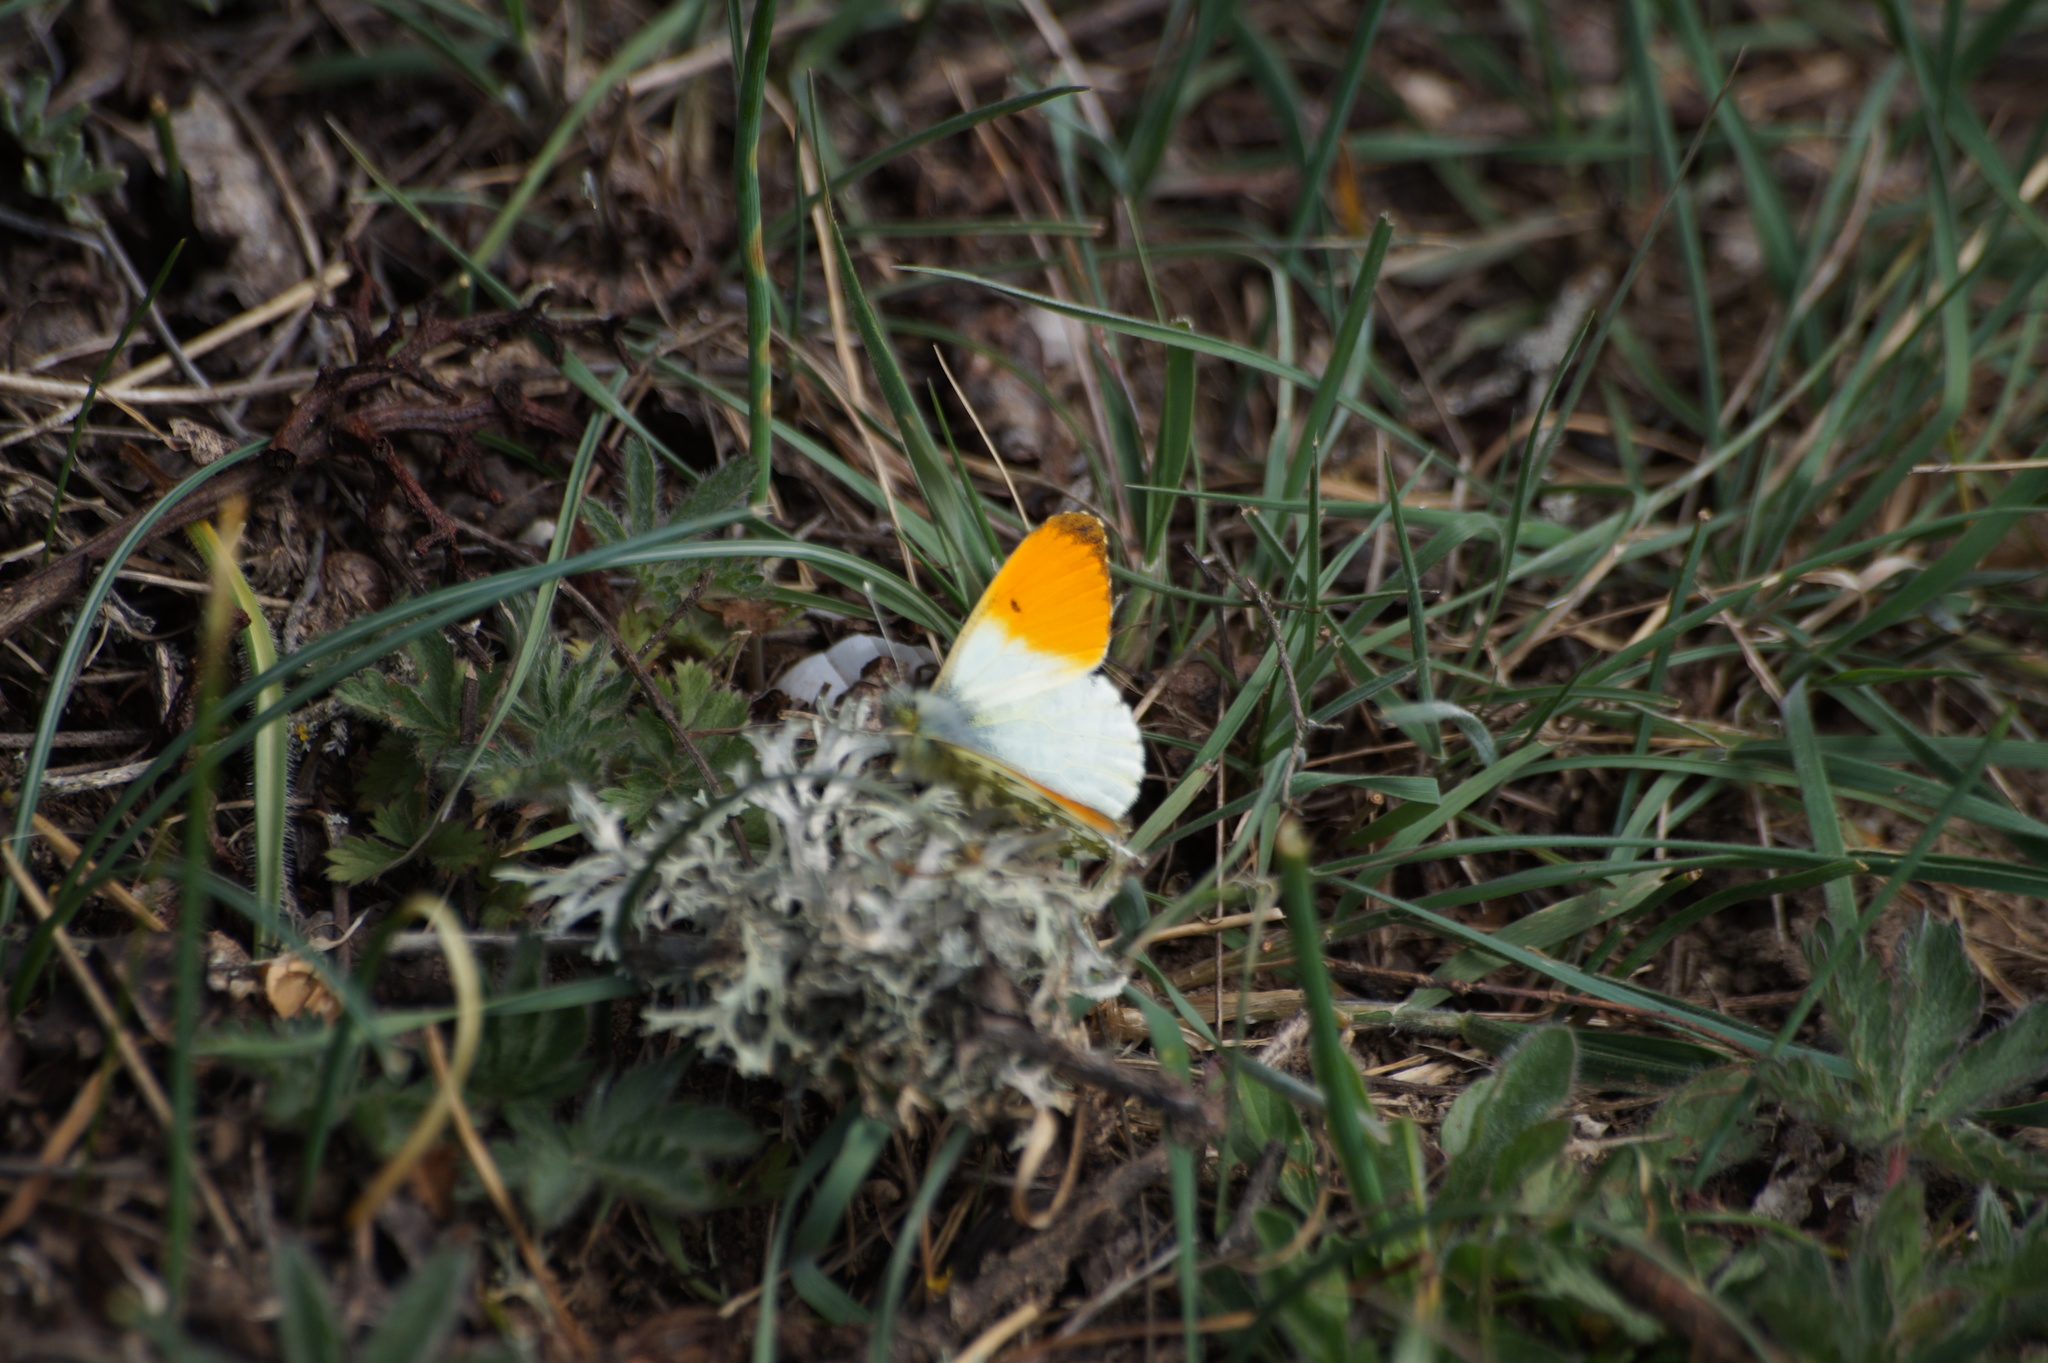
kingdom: Animalia
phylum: Arthropoda
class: Insecta
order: Lepidoptera
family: Pieridae
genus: Anthocharis
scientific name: Anthocharis cardamines
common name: Orange-tip
